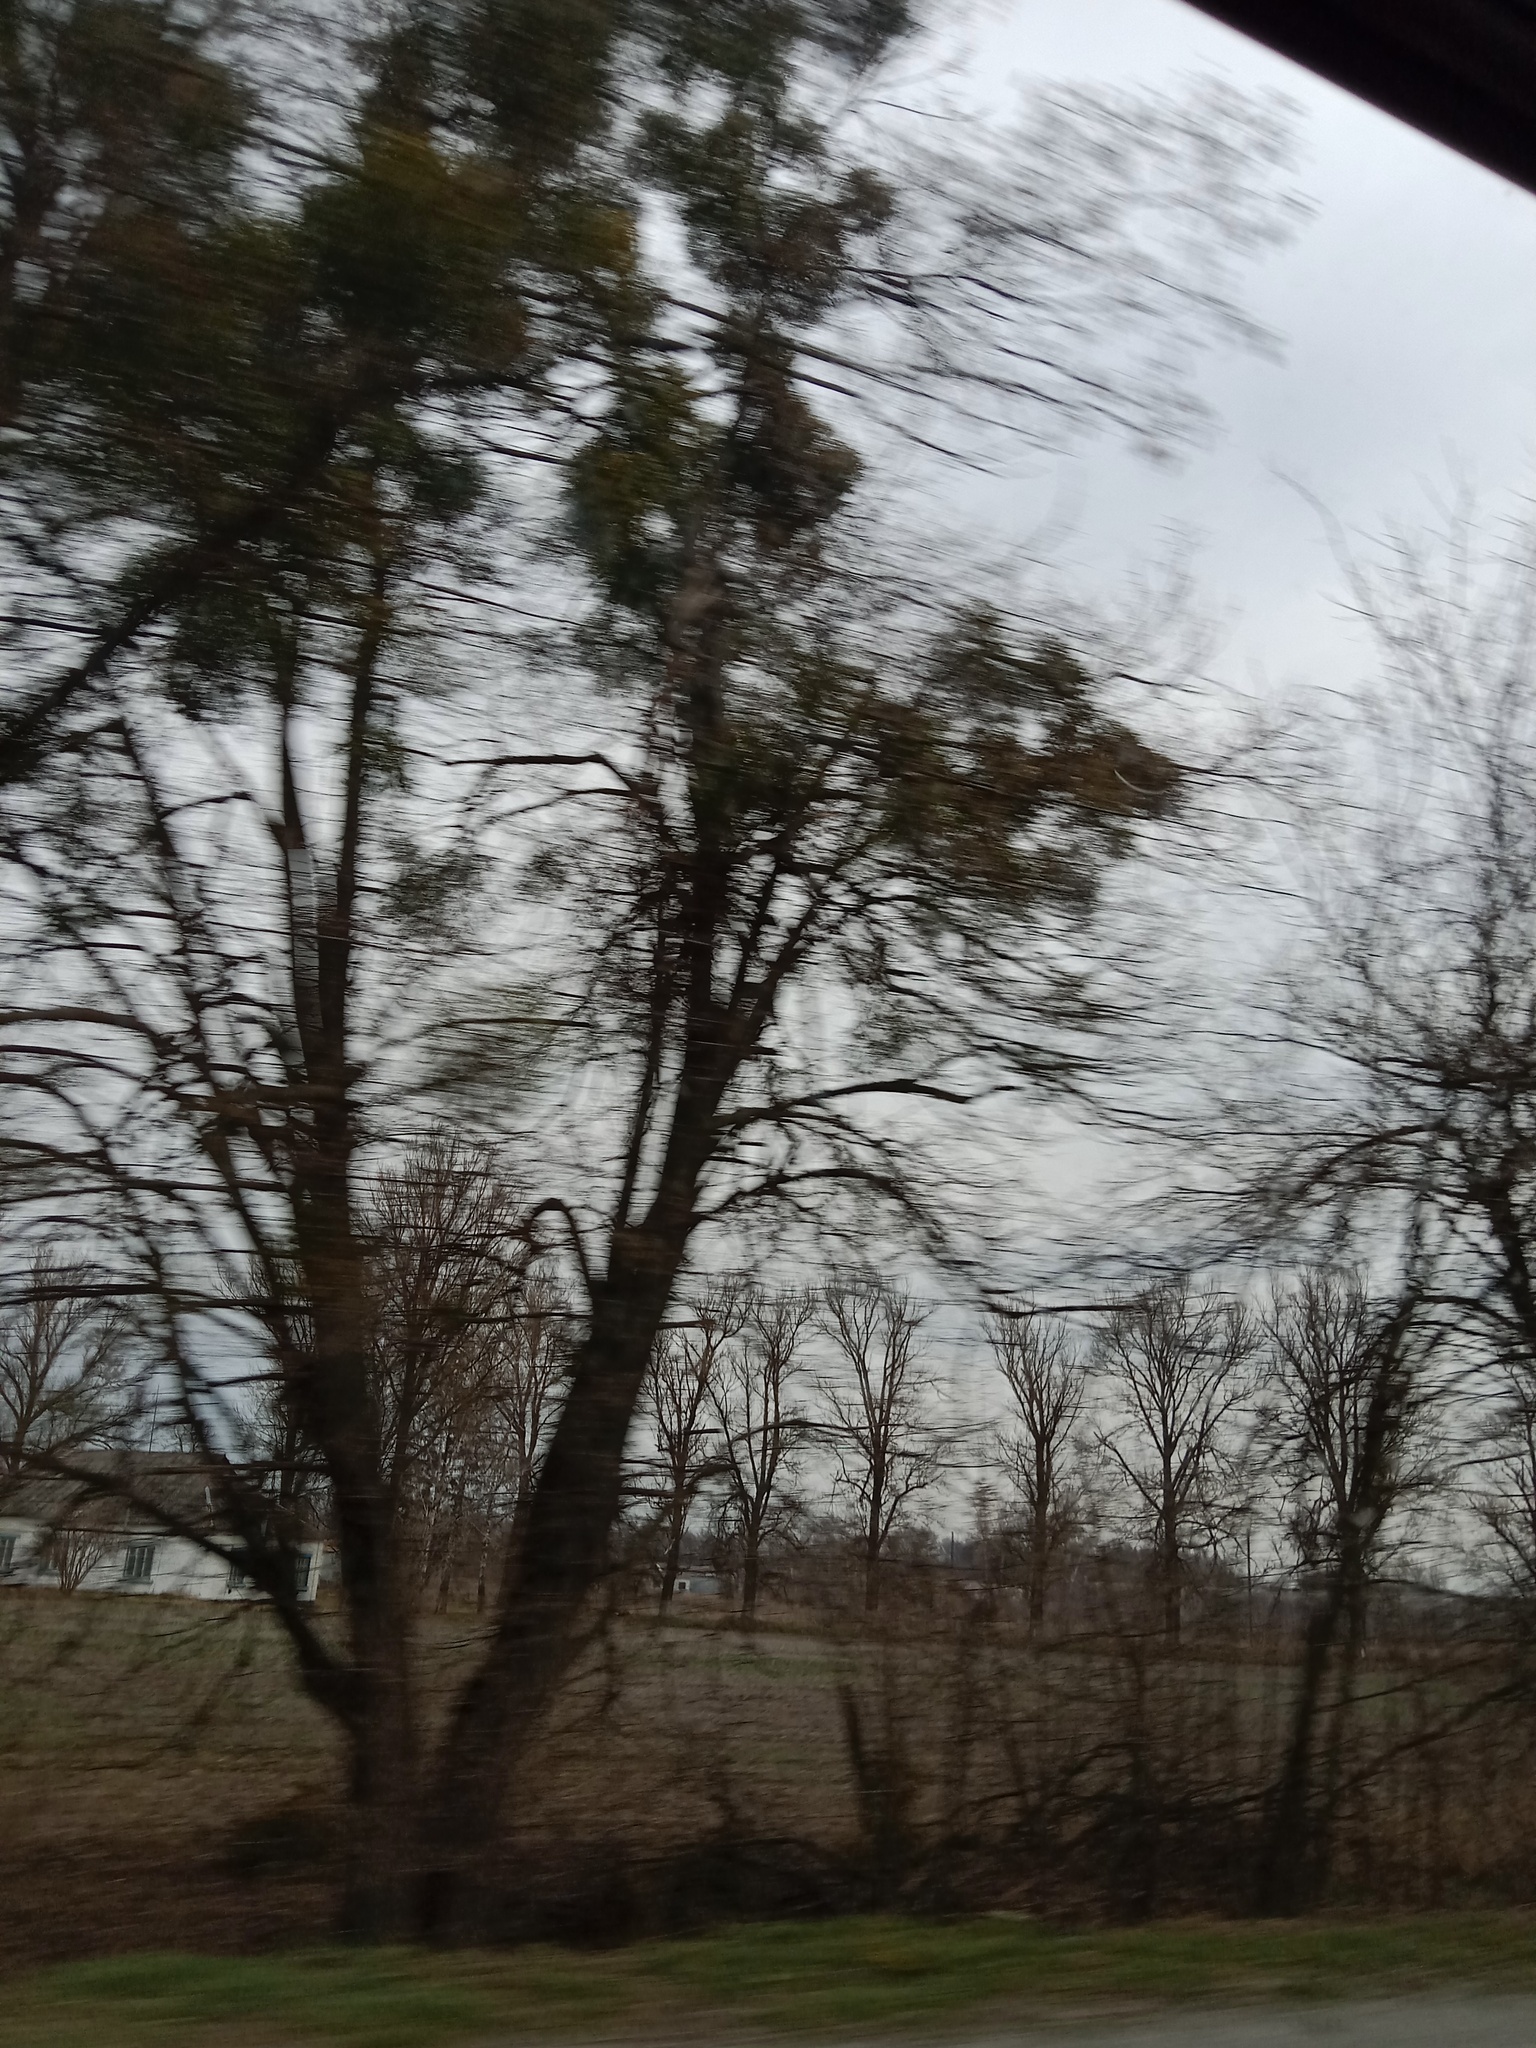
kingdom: Plantae
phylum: Tracheophyta
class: Magnoliopsida
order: Santalales
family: Viscaceae
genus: Viscum
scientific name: Viscum album
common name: Mistletoe
